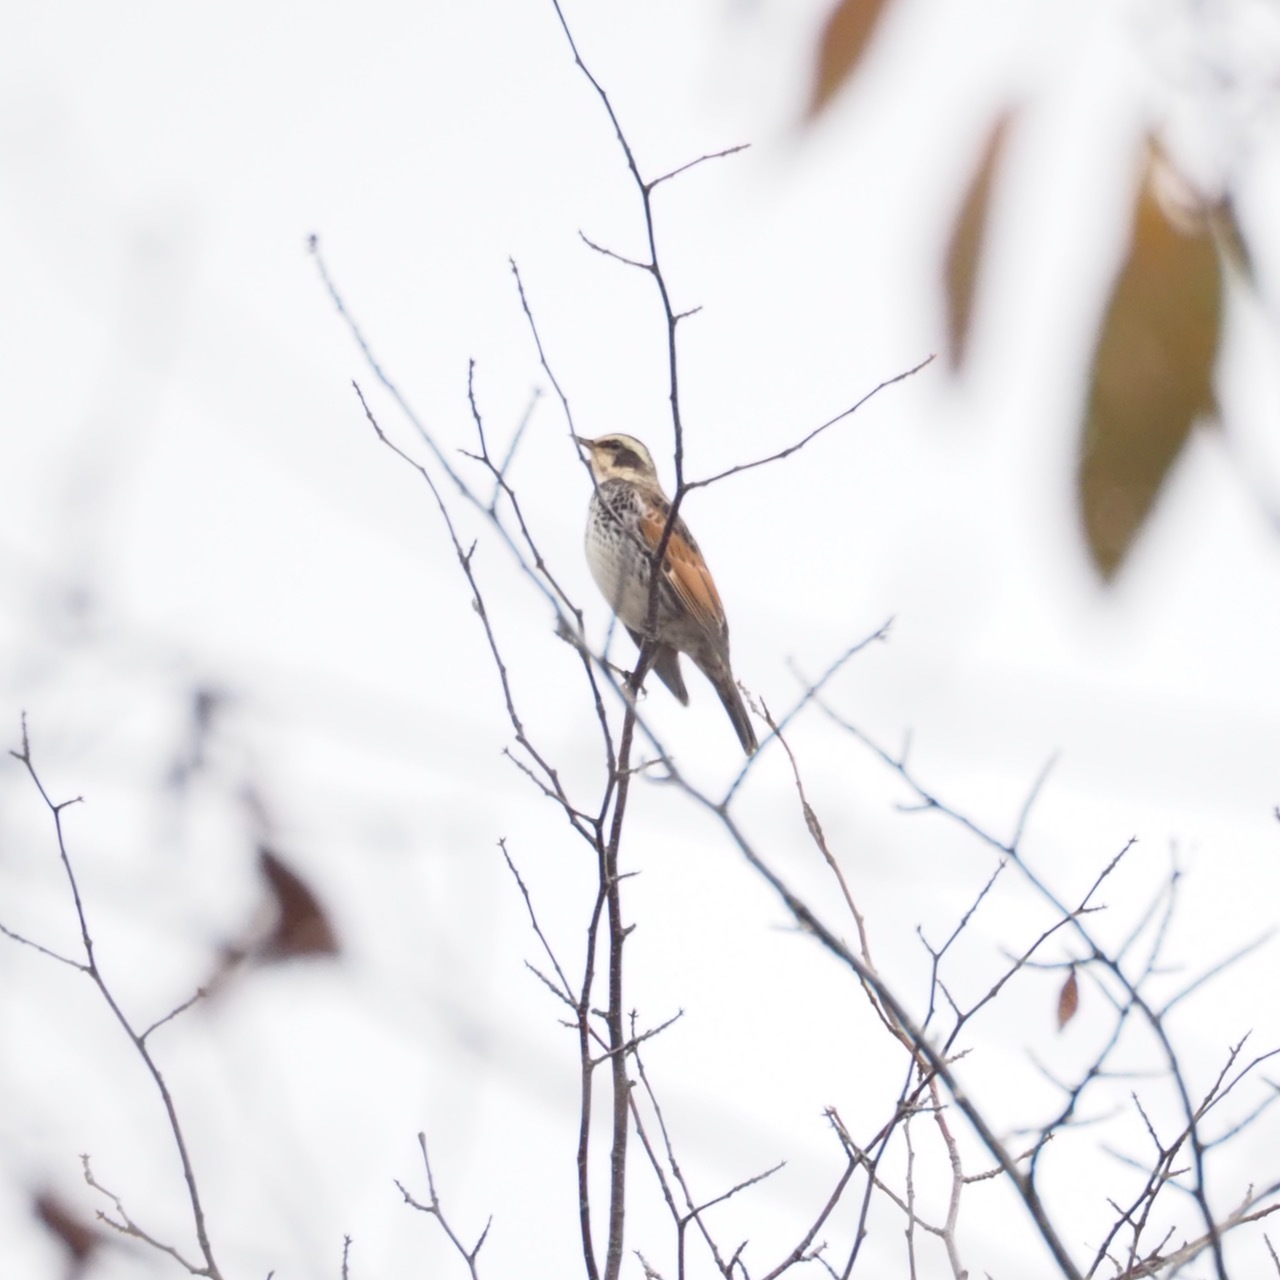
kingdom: Animalia
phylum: Chordata
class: Aves
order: Passeriformes
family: Turdidae
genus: Turdus
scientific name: Turdus eunomus
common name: Dusky thrush
